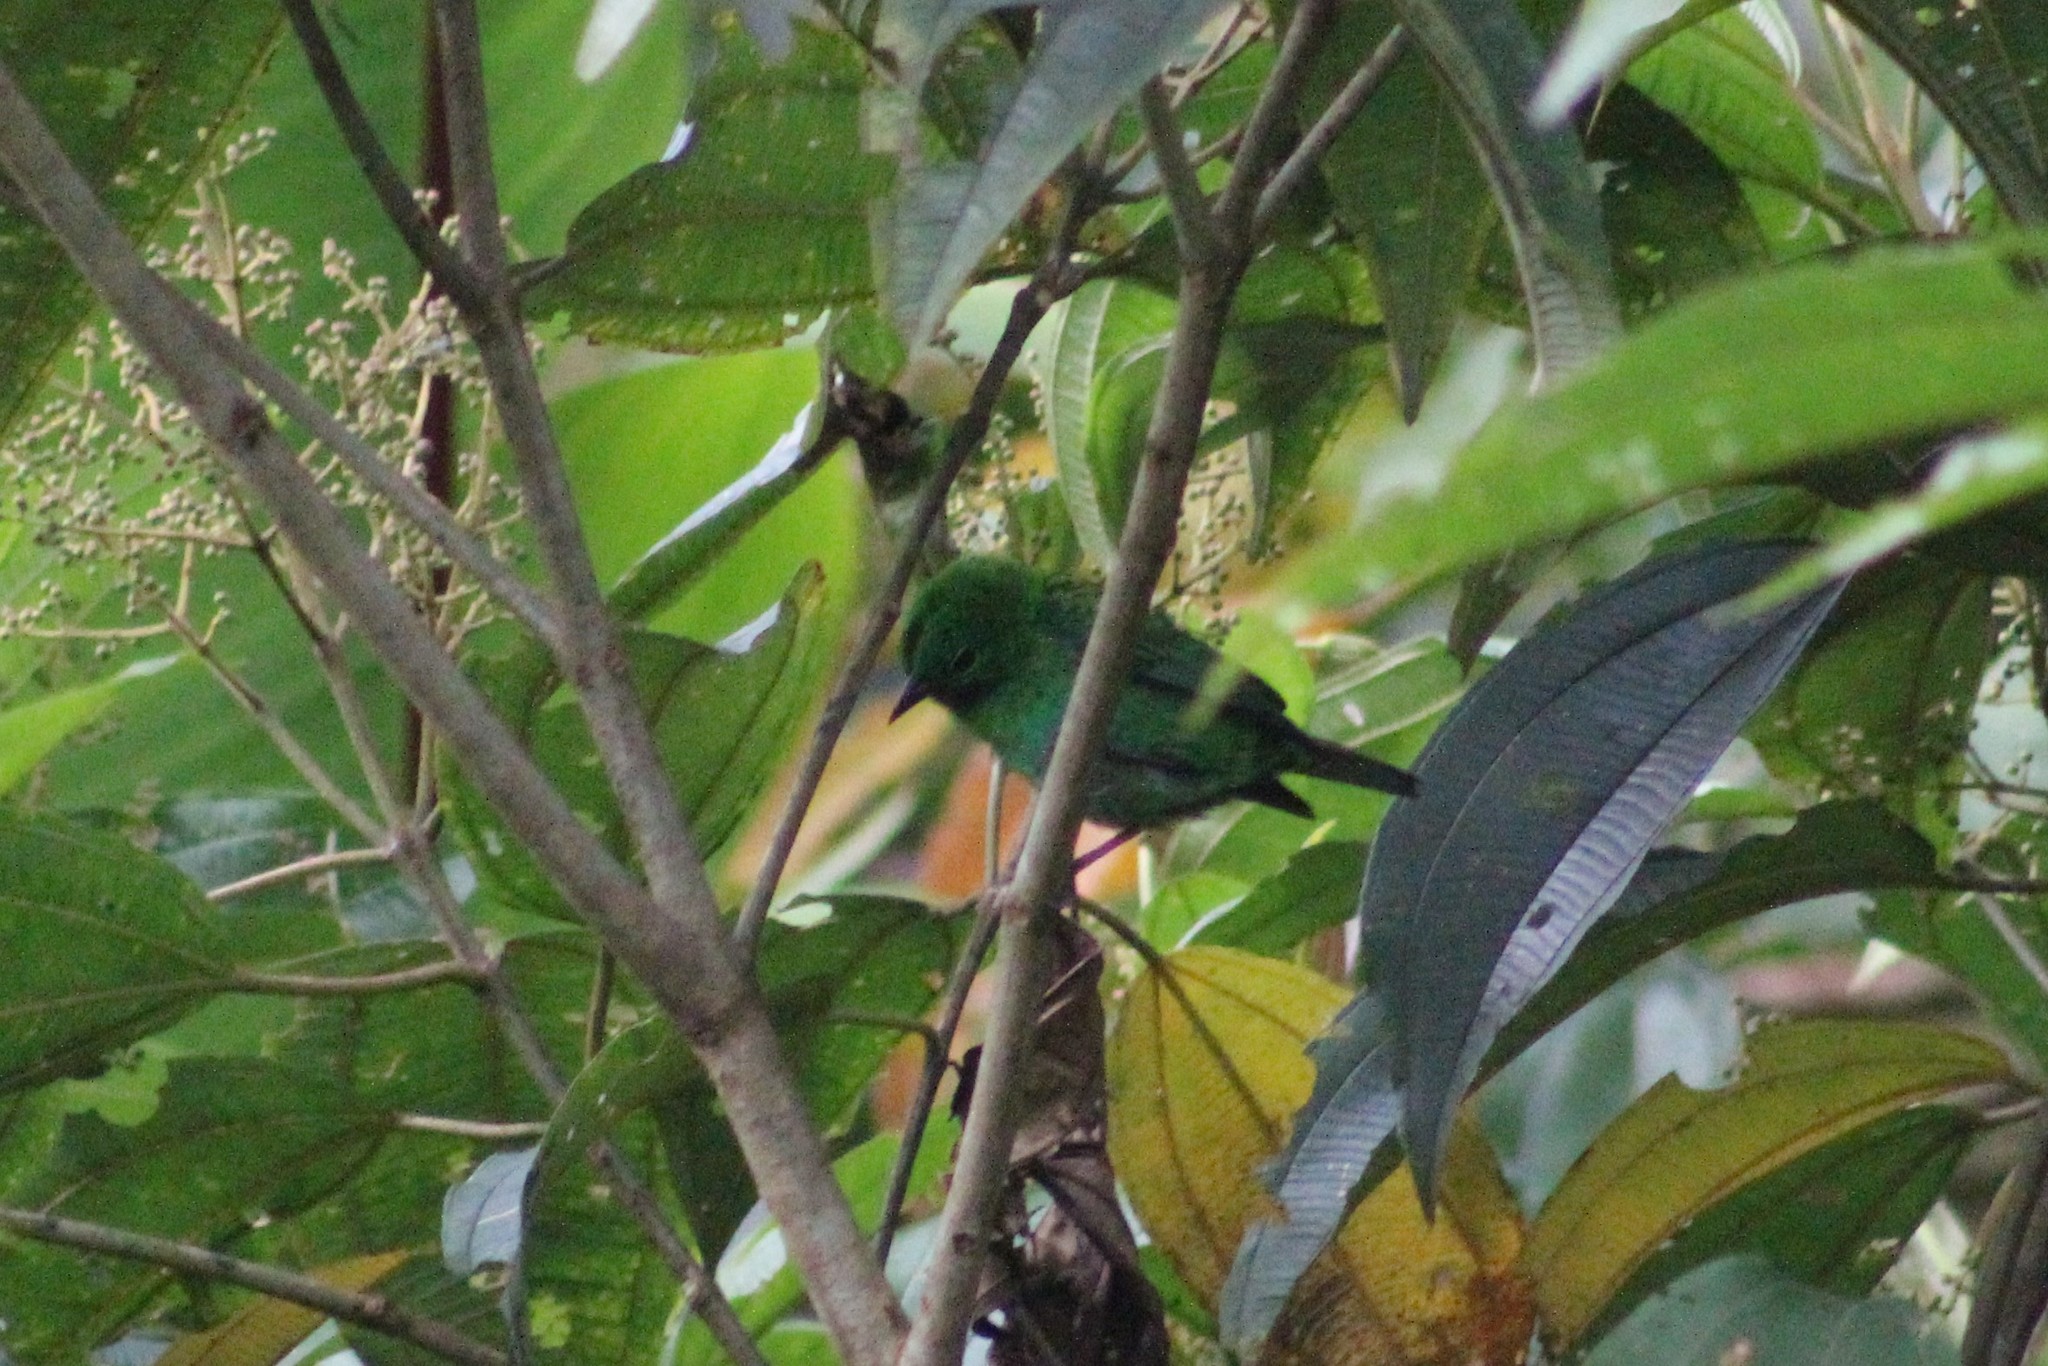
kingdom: Animalia
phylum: Chordata
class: Aves
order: Passeriformes
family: Thraupidae
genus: Chlorochrysa
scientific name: Chlorochrysa calliparaea
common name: Orange-eared tanager
